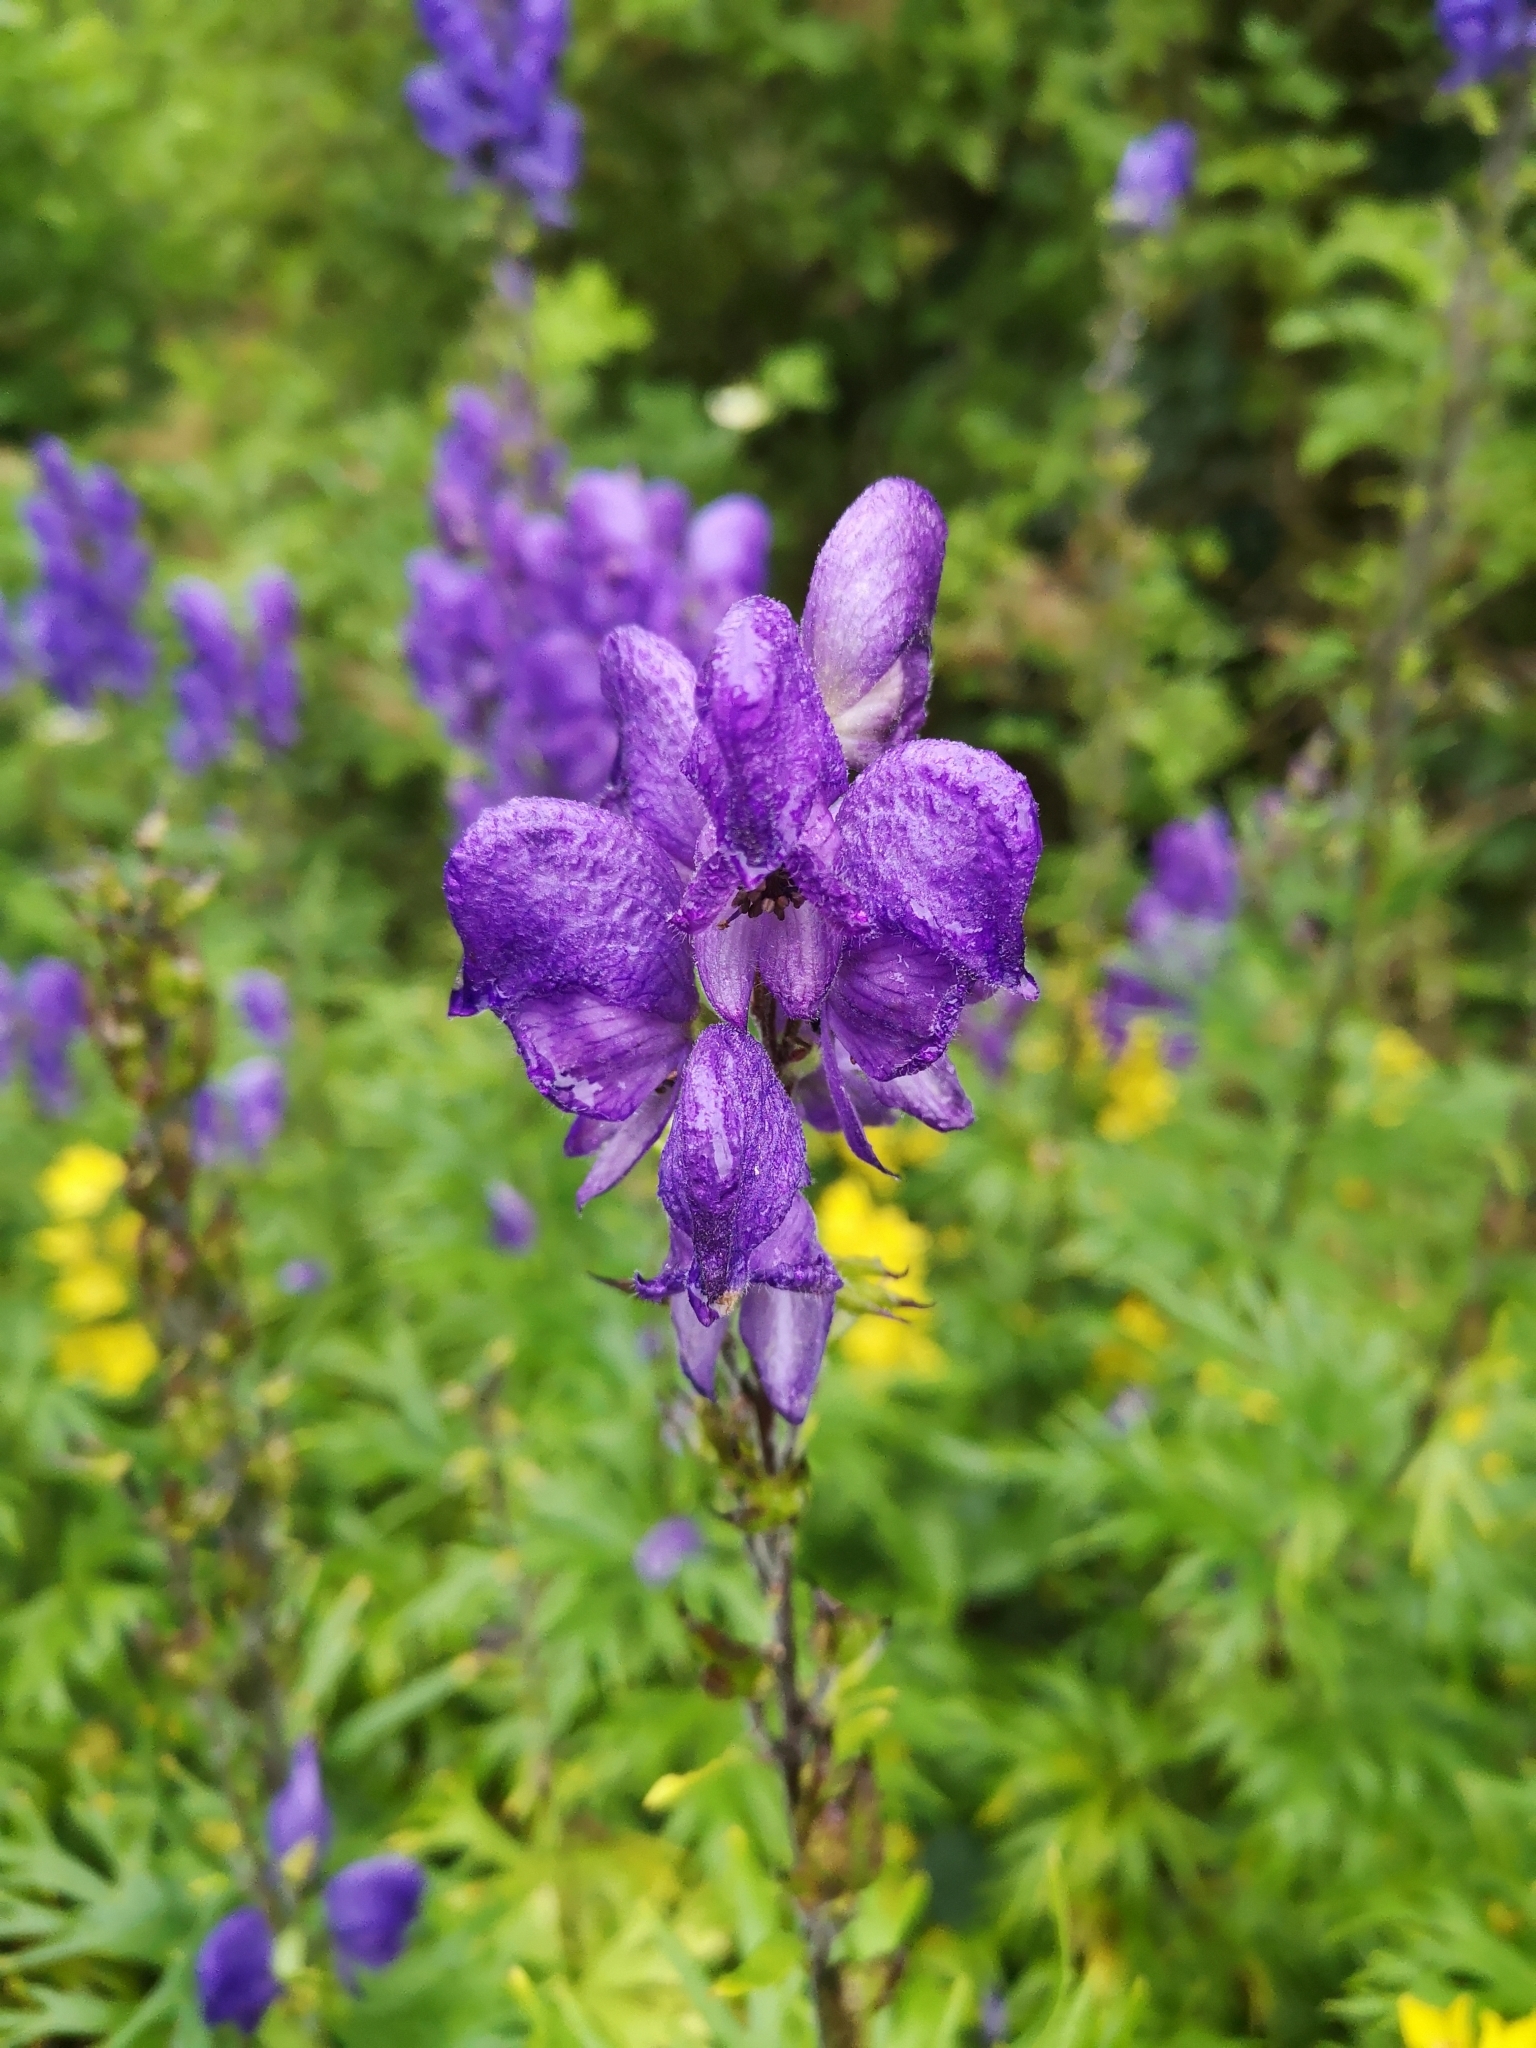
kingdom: Plantae
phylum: Tracheophyta
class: Magnoliopsida
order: Ranunculales
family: Ranunculaceae
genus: Aconitum
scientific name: Aconitum napellus
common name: Garden monkshood
